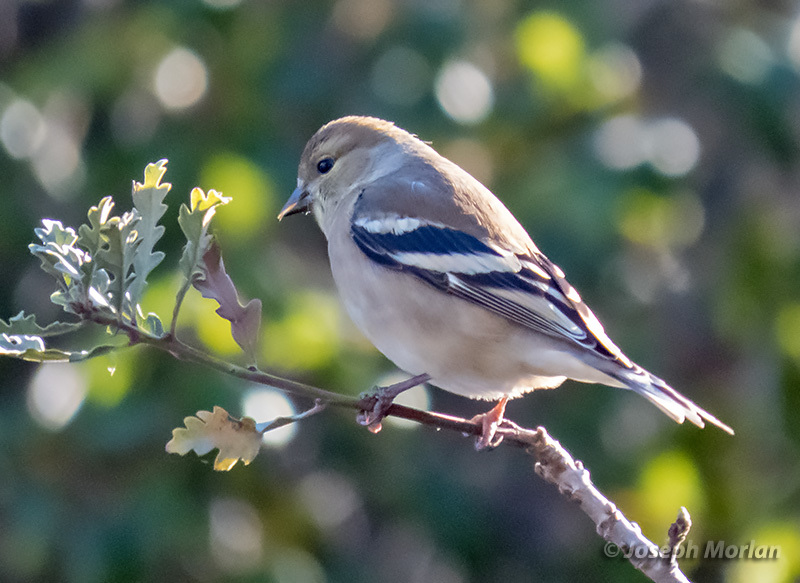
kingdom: Animalia
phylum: Chordata
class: Aves
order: Passeriformes
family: Fringillidae
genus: Spinus
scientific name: Spinus tristis
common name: American goldfinch
